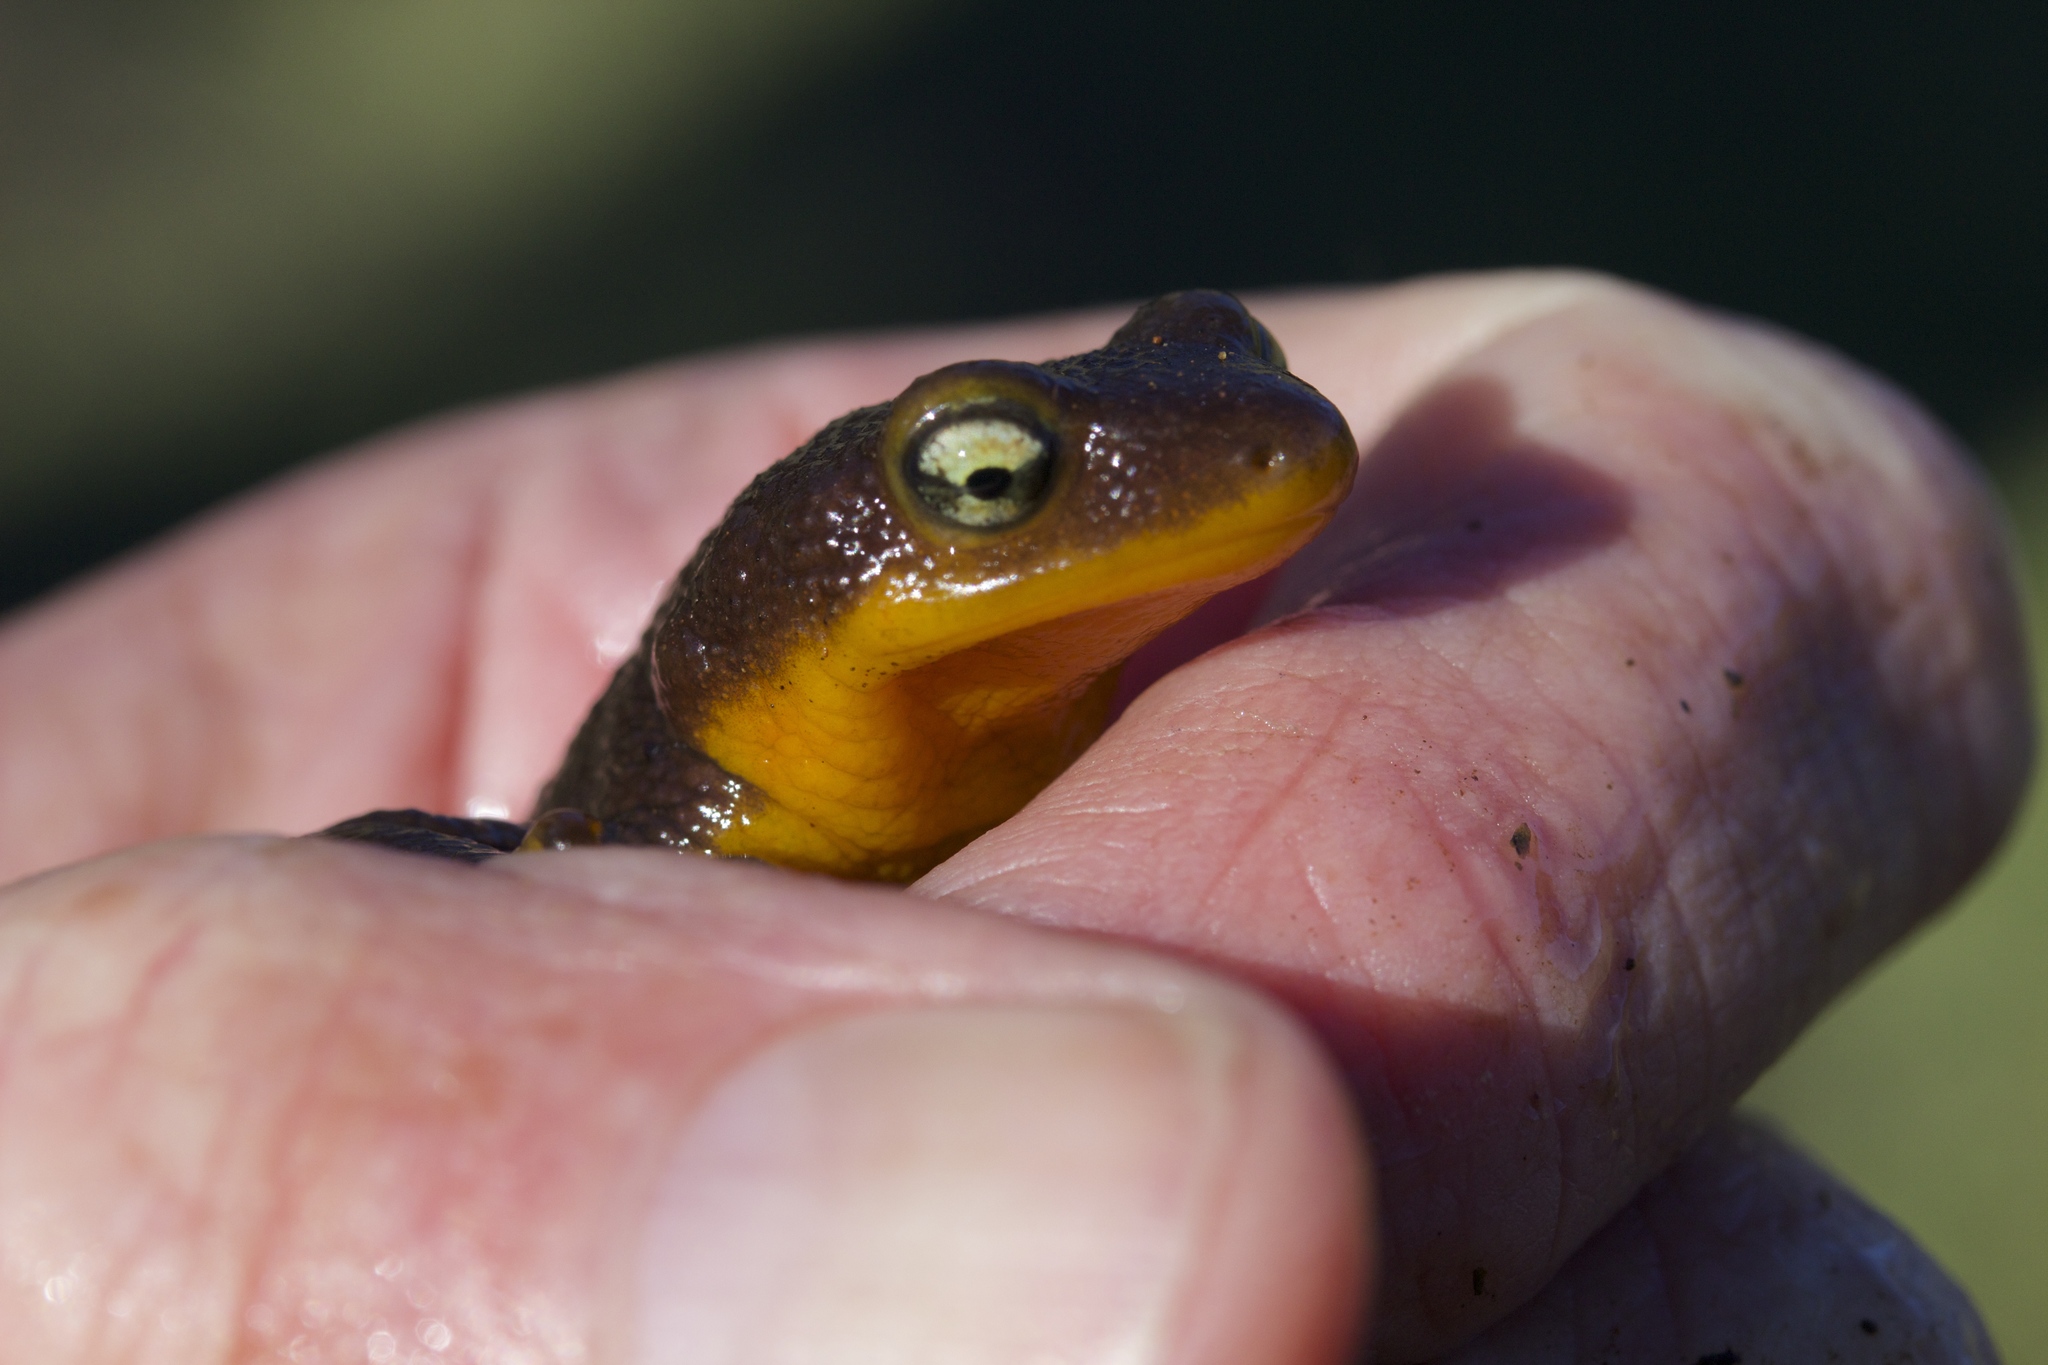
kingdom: Animalia
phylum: Chordata
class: Amphibia
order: Caudata
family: Salamandridae
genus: Taricha
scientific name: Taricha torosa
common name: California newt
